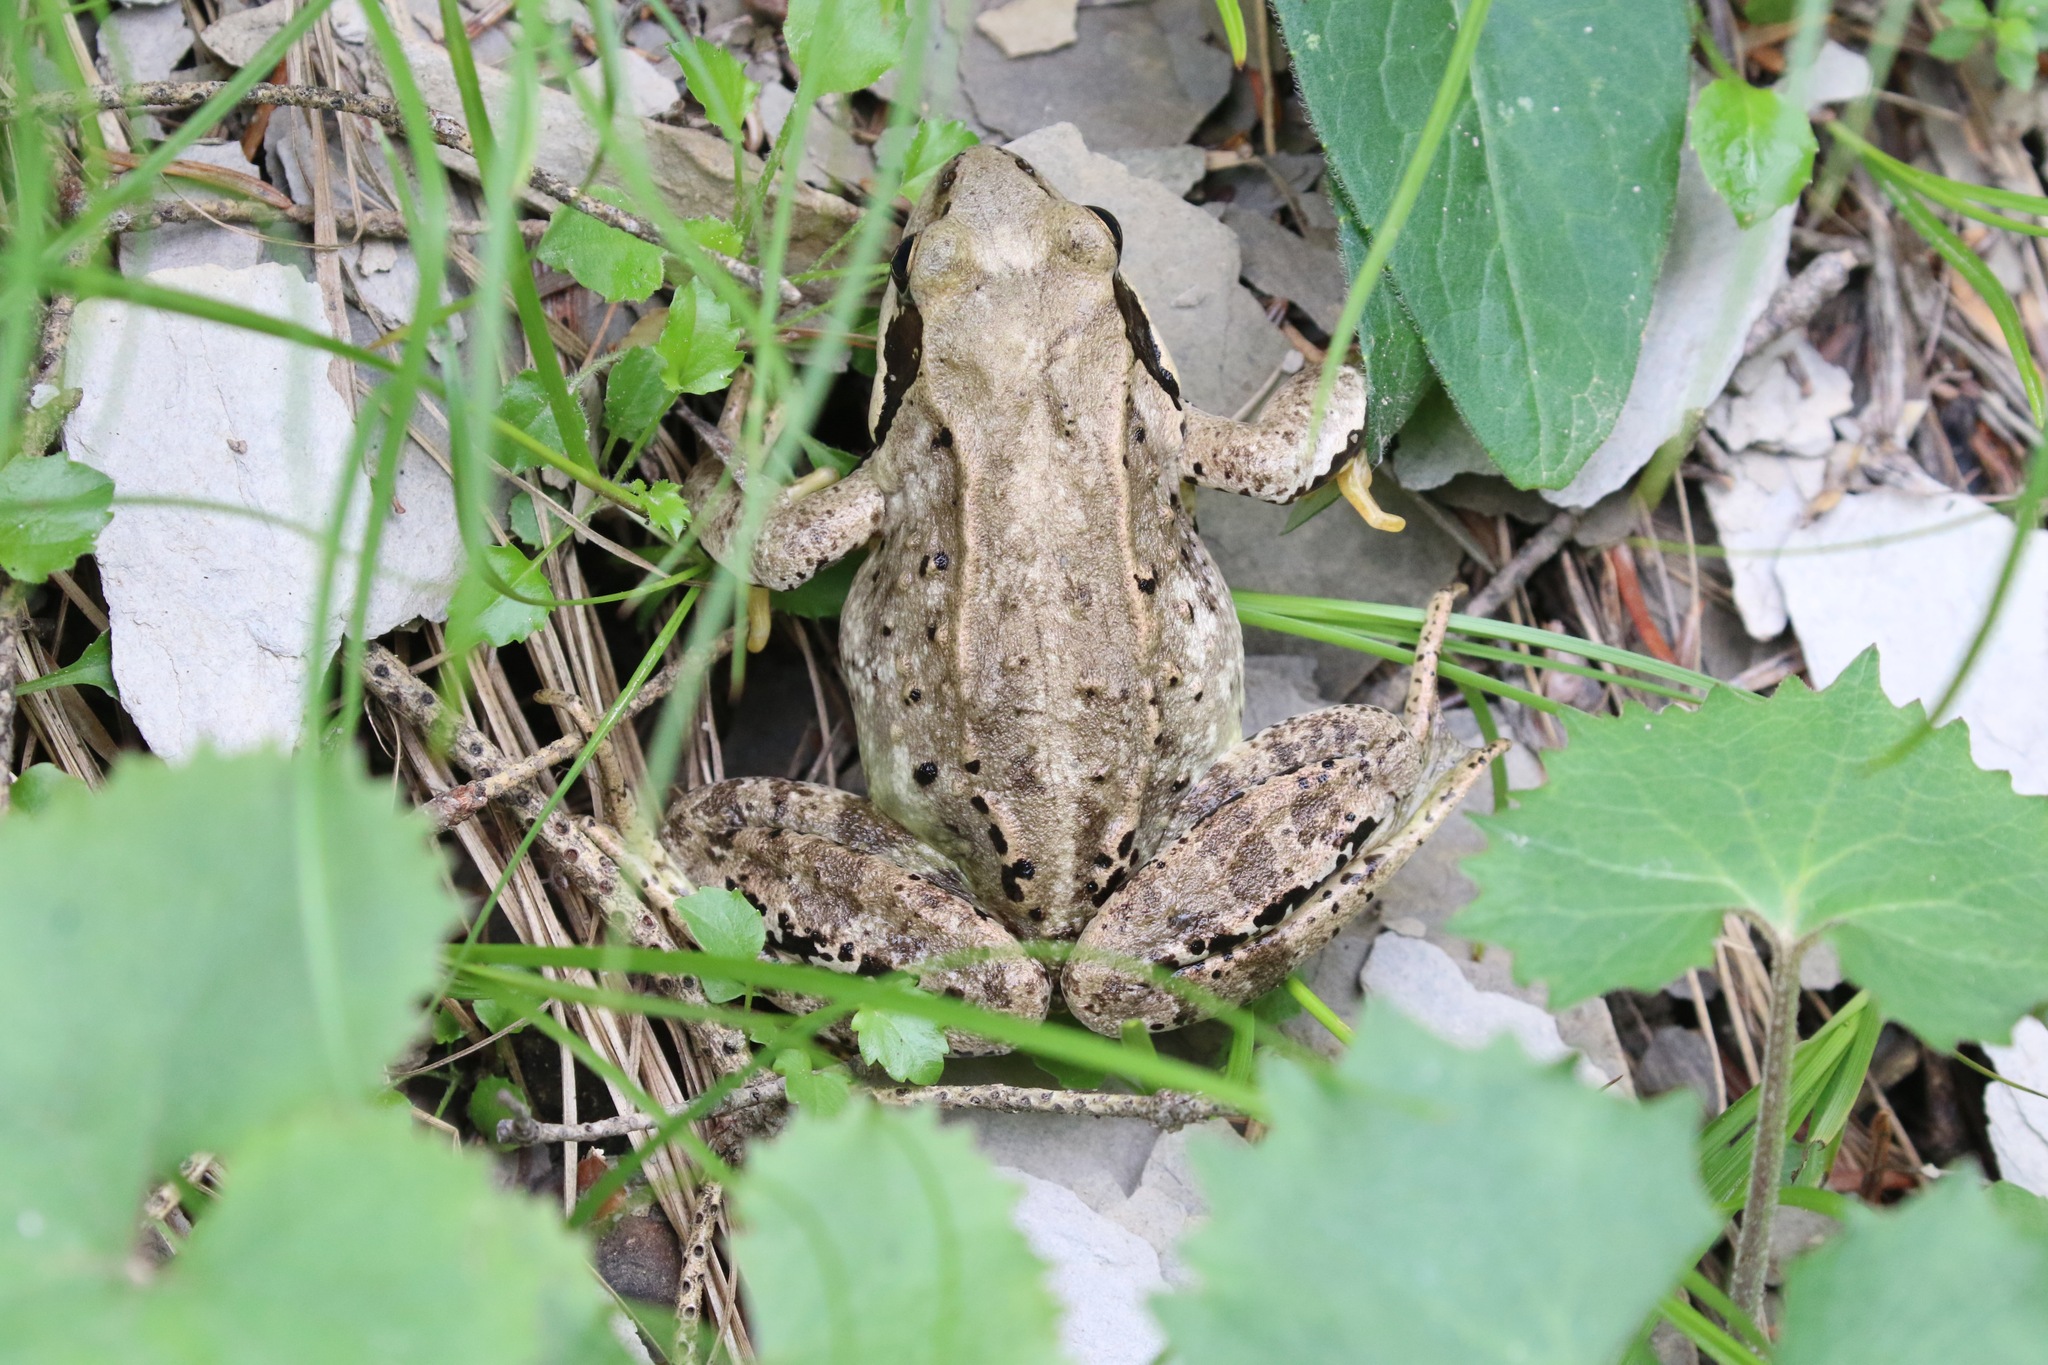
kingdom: Animalia
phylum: Chordata
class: Amphibia
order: Anura
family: Ranidae
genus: Rana
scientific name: Rana temporaria
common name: Common frog
